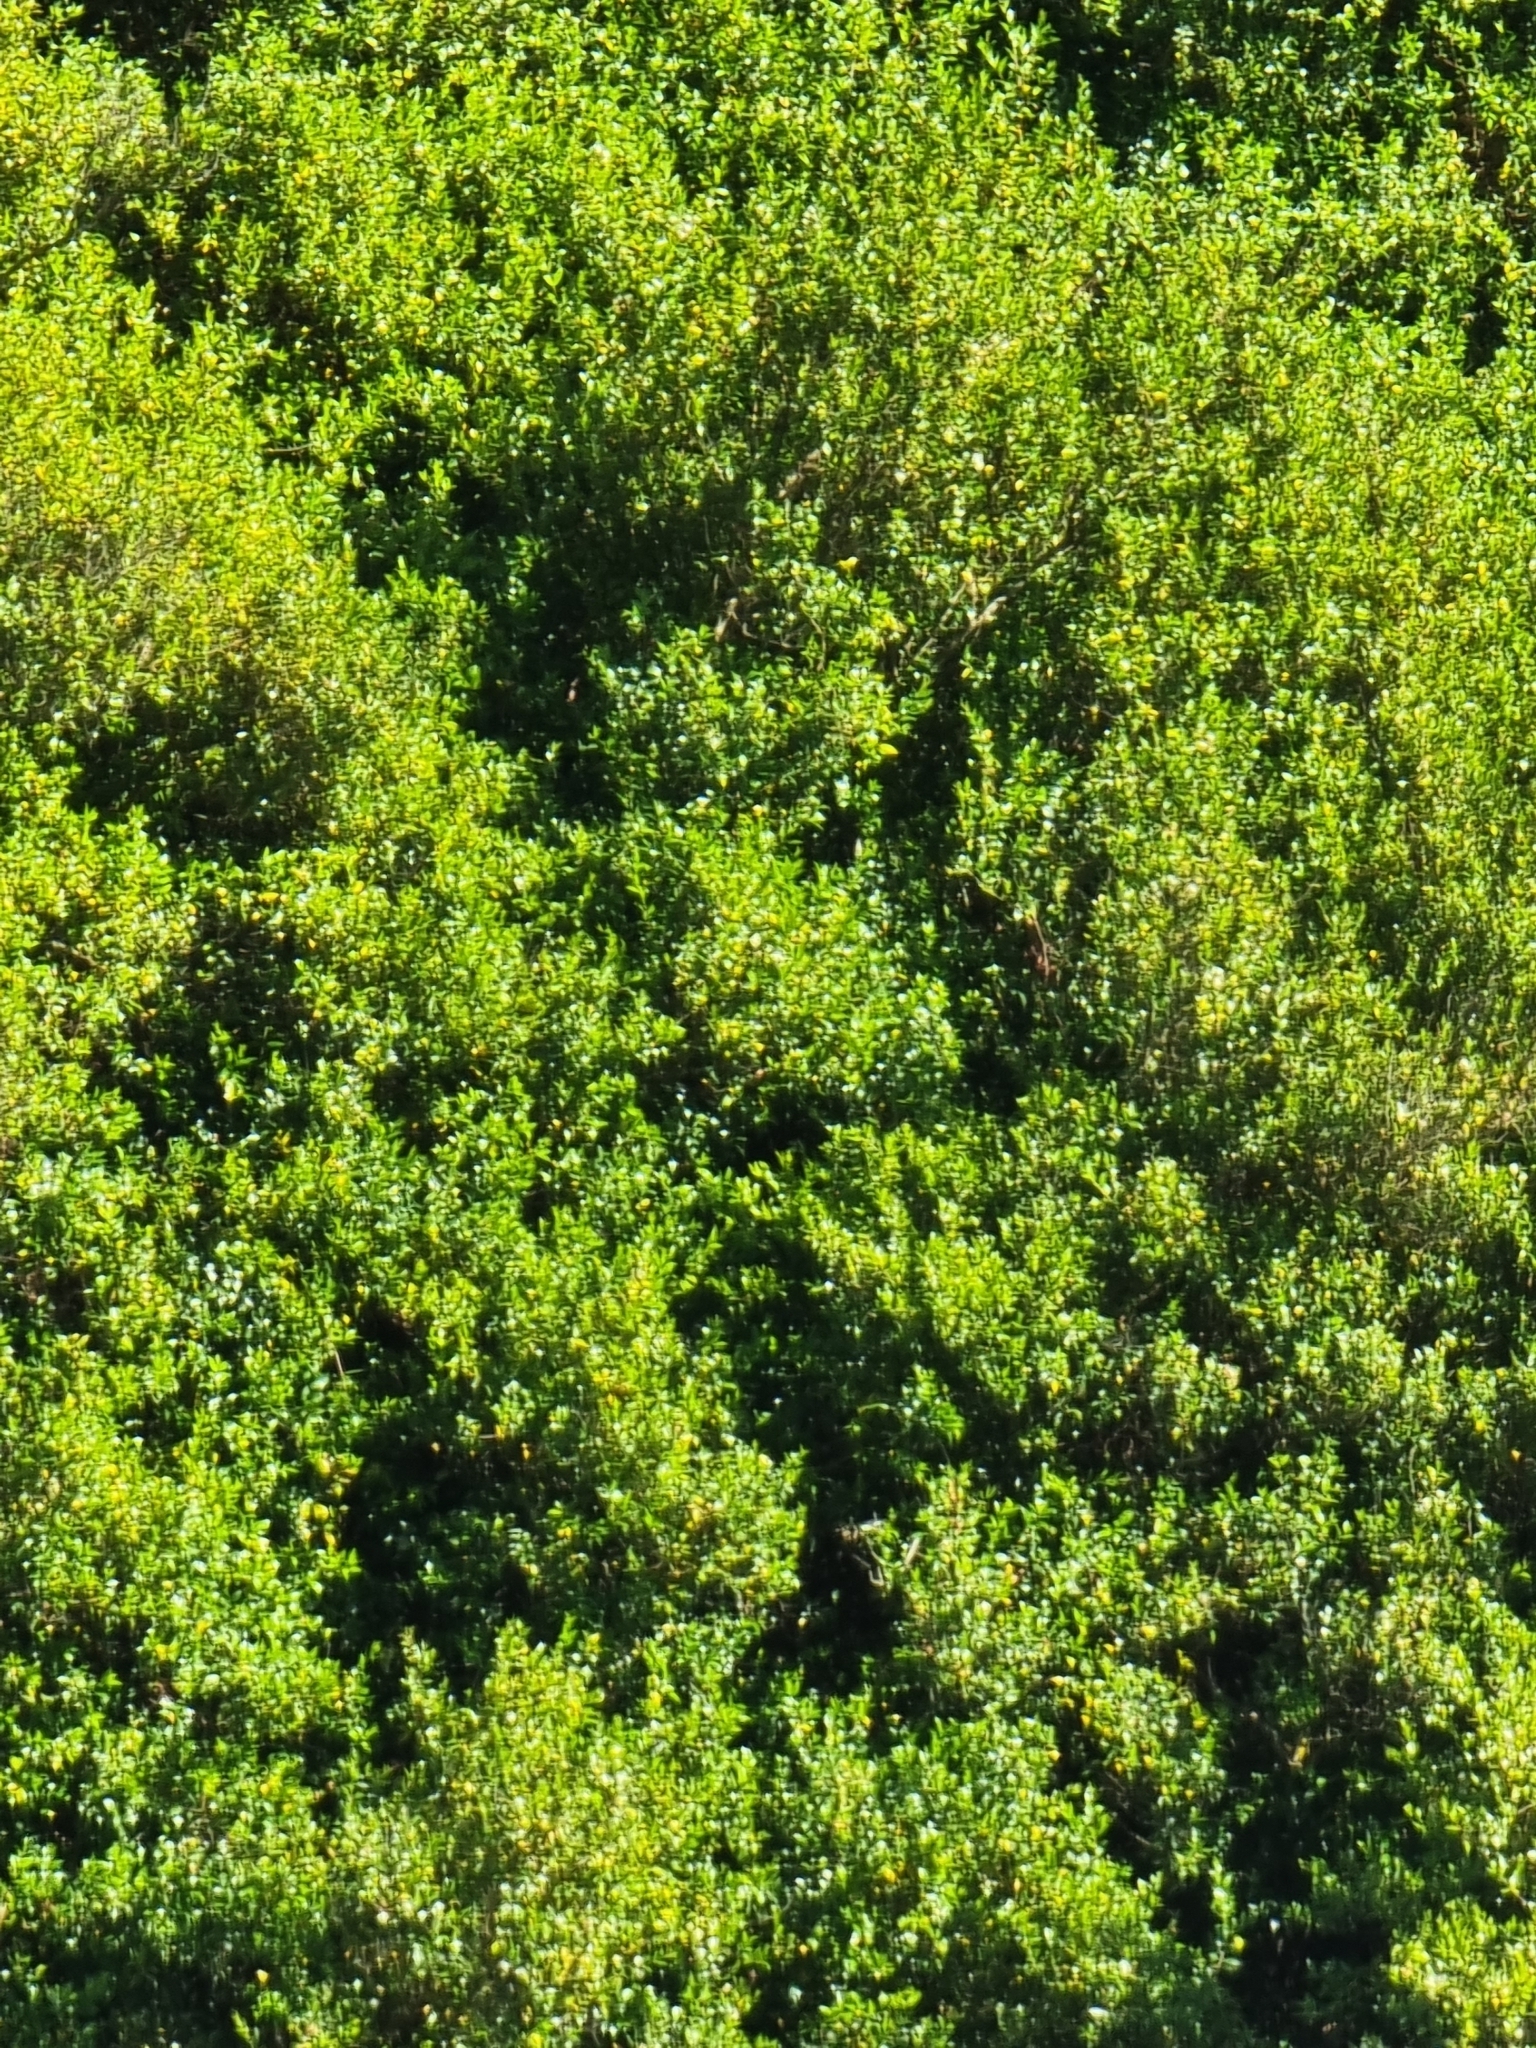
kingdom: Plantae
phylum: Tracheophyta
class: Magnoliopsida
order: Myrtales
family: Myrtaceae
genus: Myrtus
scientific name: Myrtus communis
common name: Myrtle
